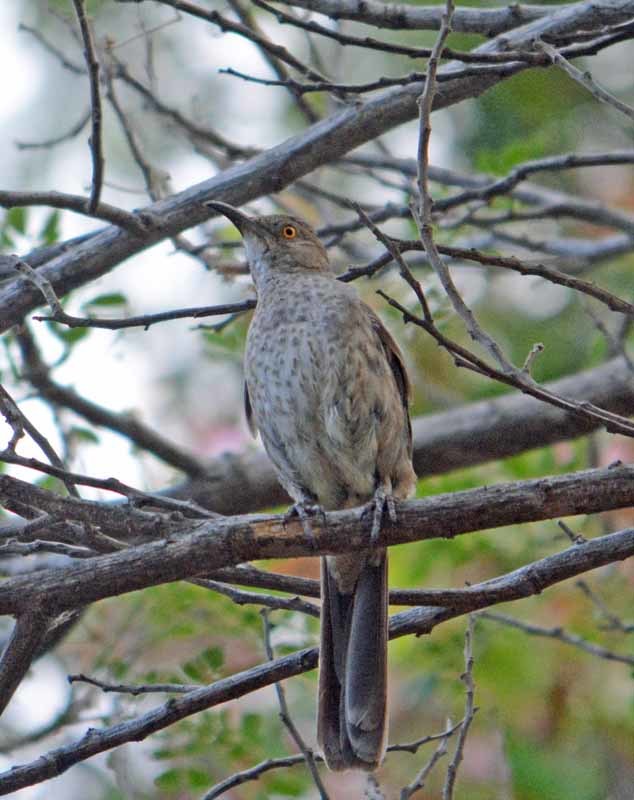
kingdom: Animalia
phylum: Chordata
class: Aves
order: Passeriformes
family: Mimidae
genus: Toxostoma
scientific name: Toxostoma curvirostre
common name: Curve-billed thrasher
